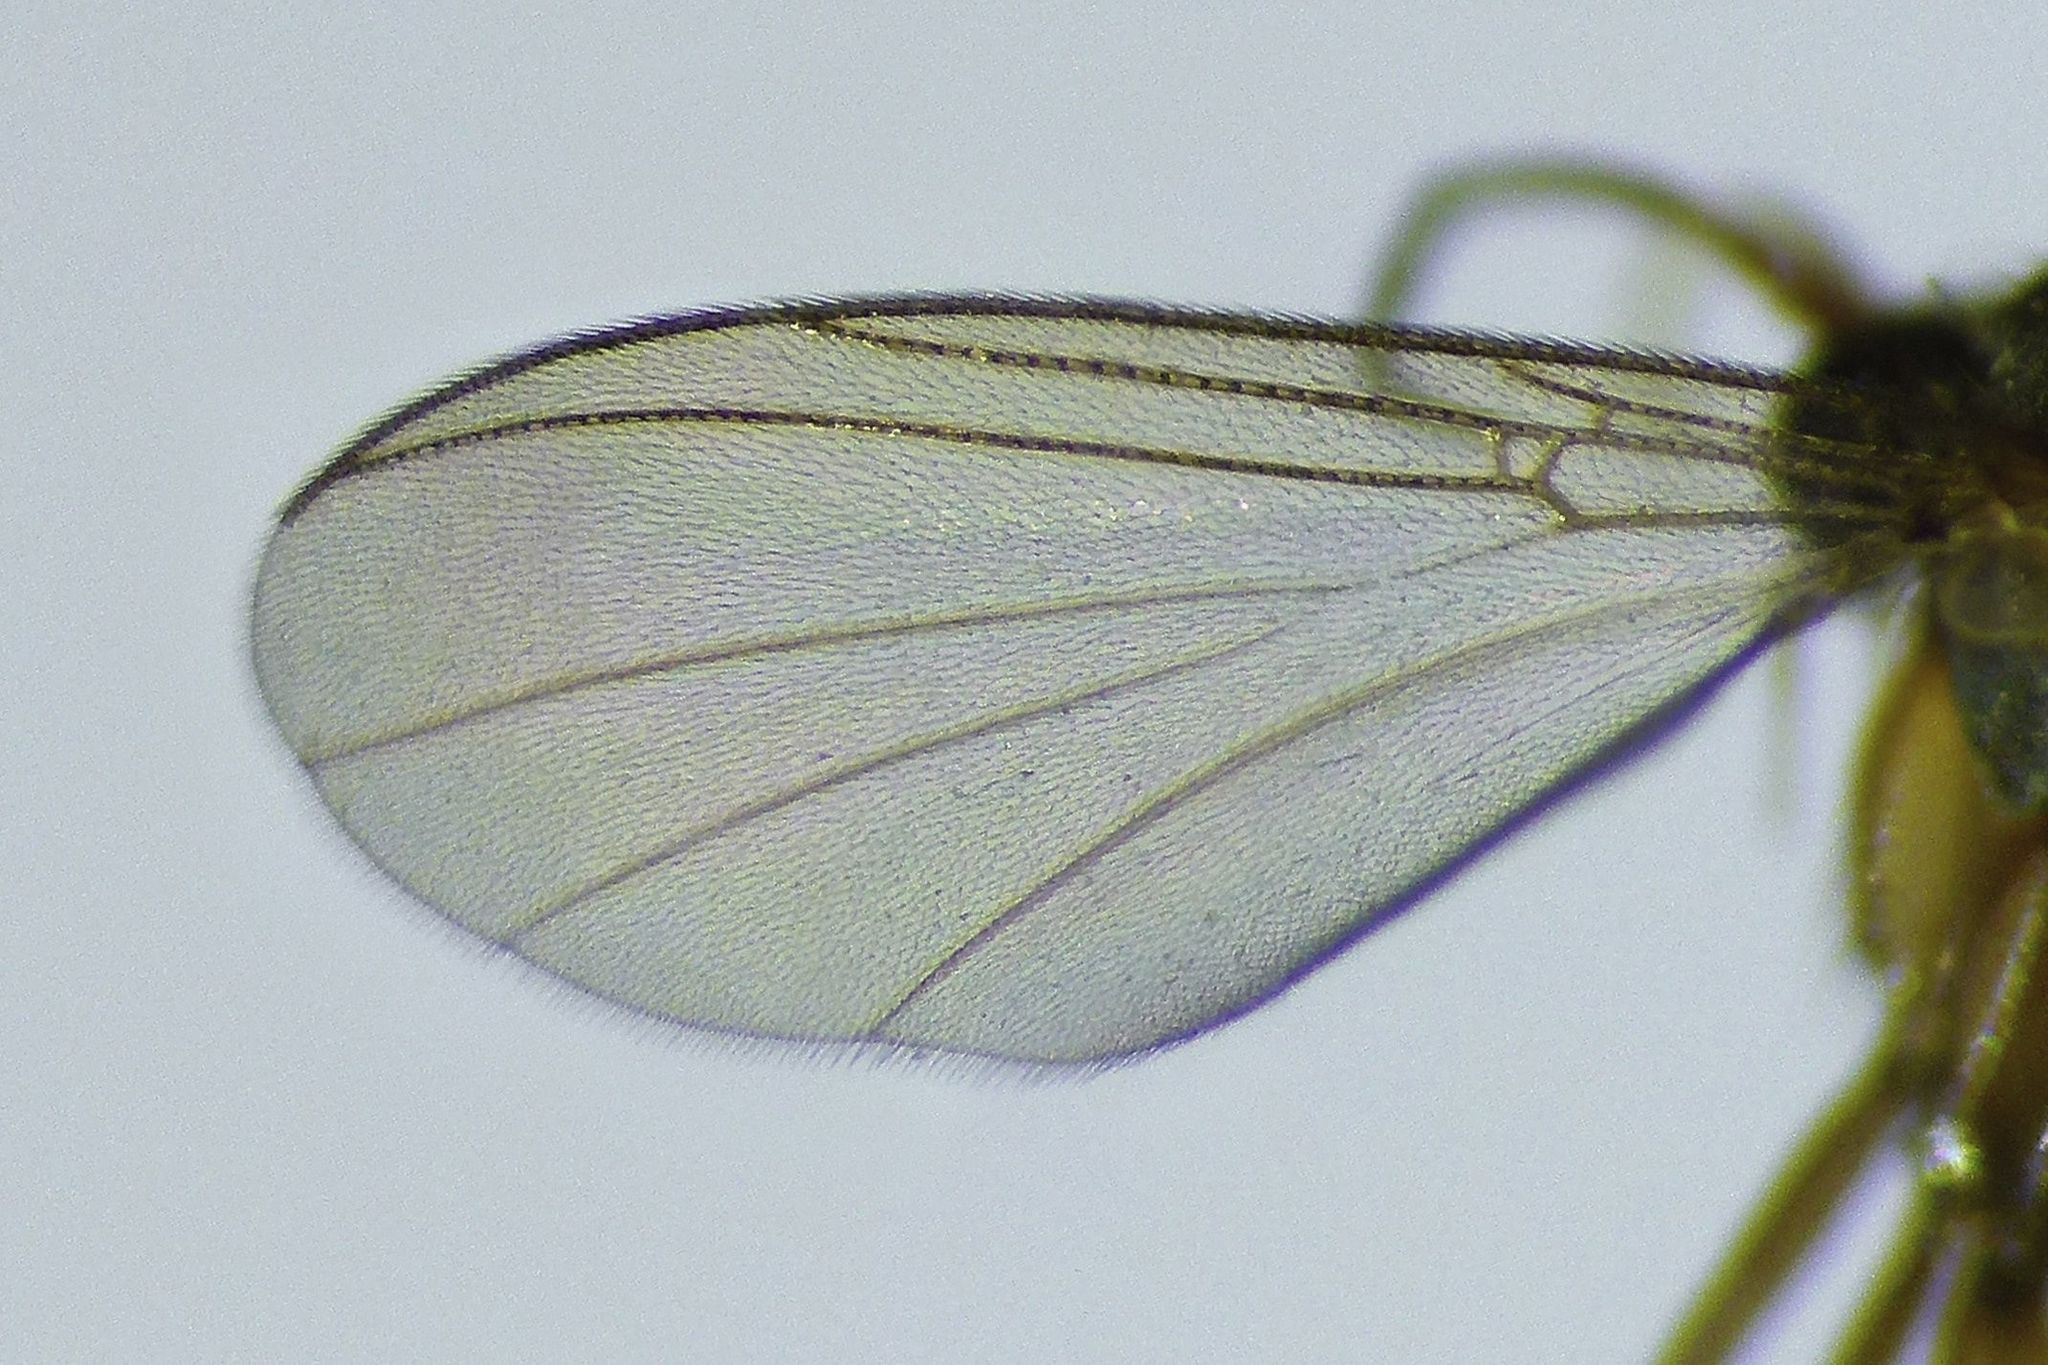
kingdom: Animalia
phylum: Arthropoda
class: Insecta
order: Diptera
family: Mycetophilidae
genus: Parvicellula
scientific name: Parvicellula gracilis
